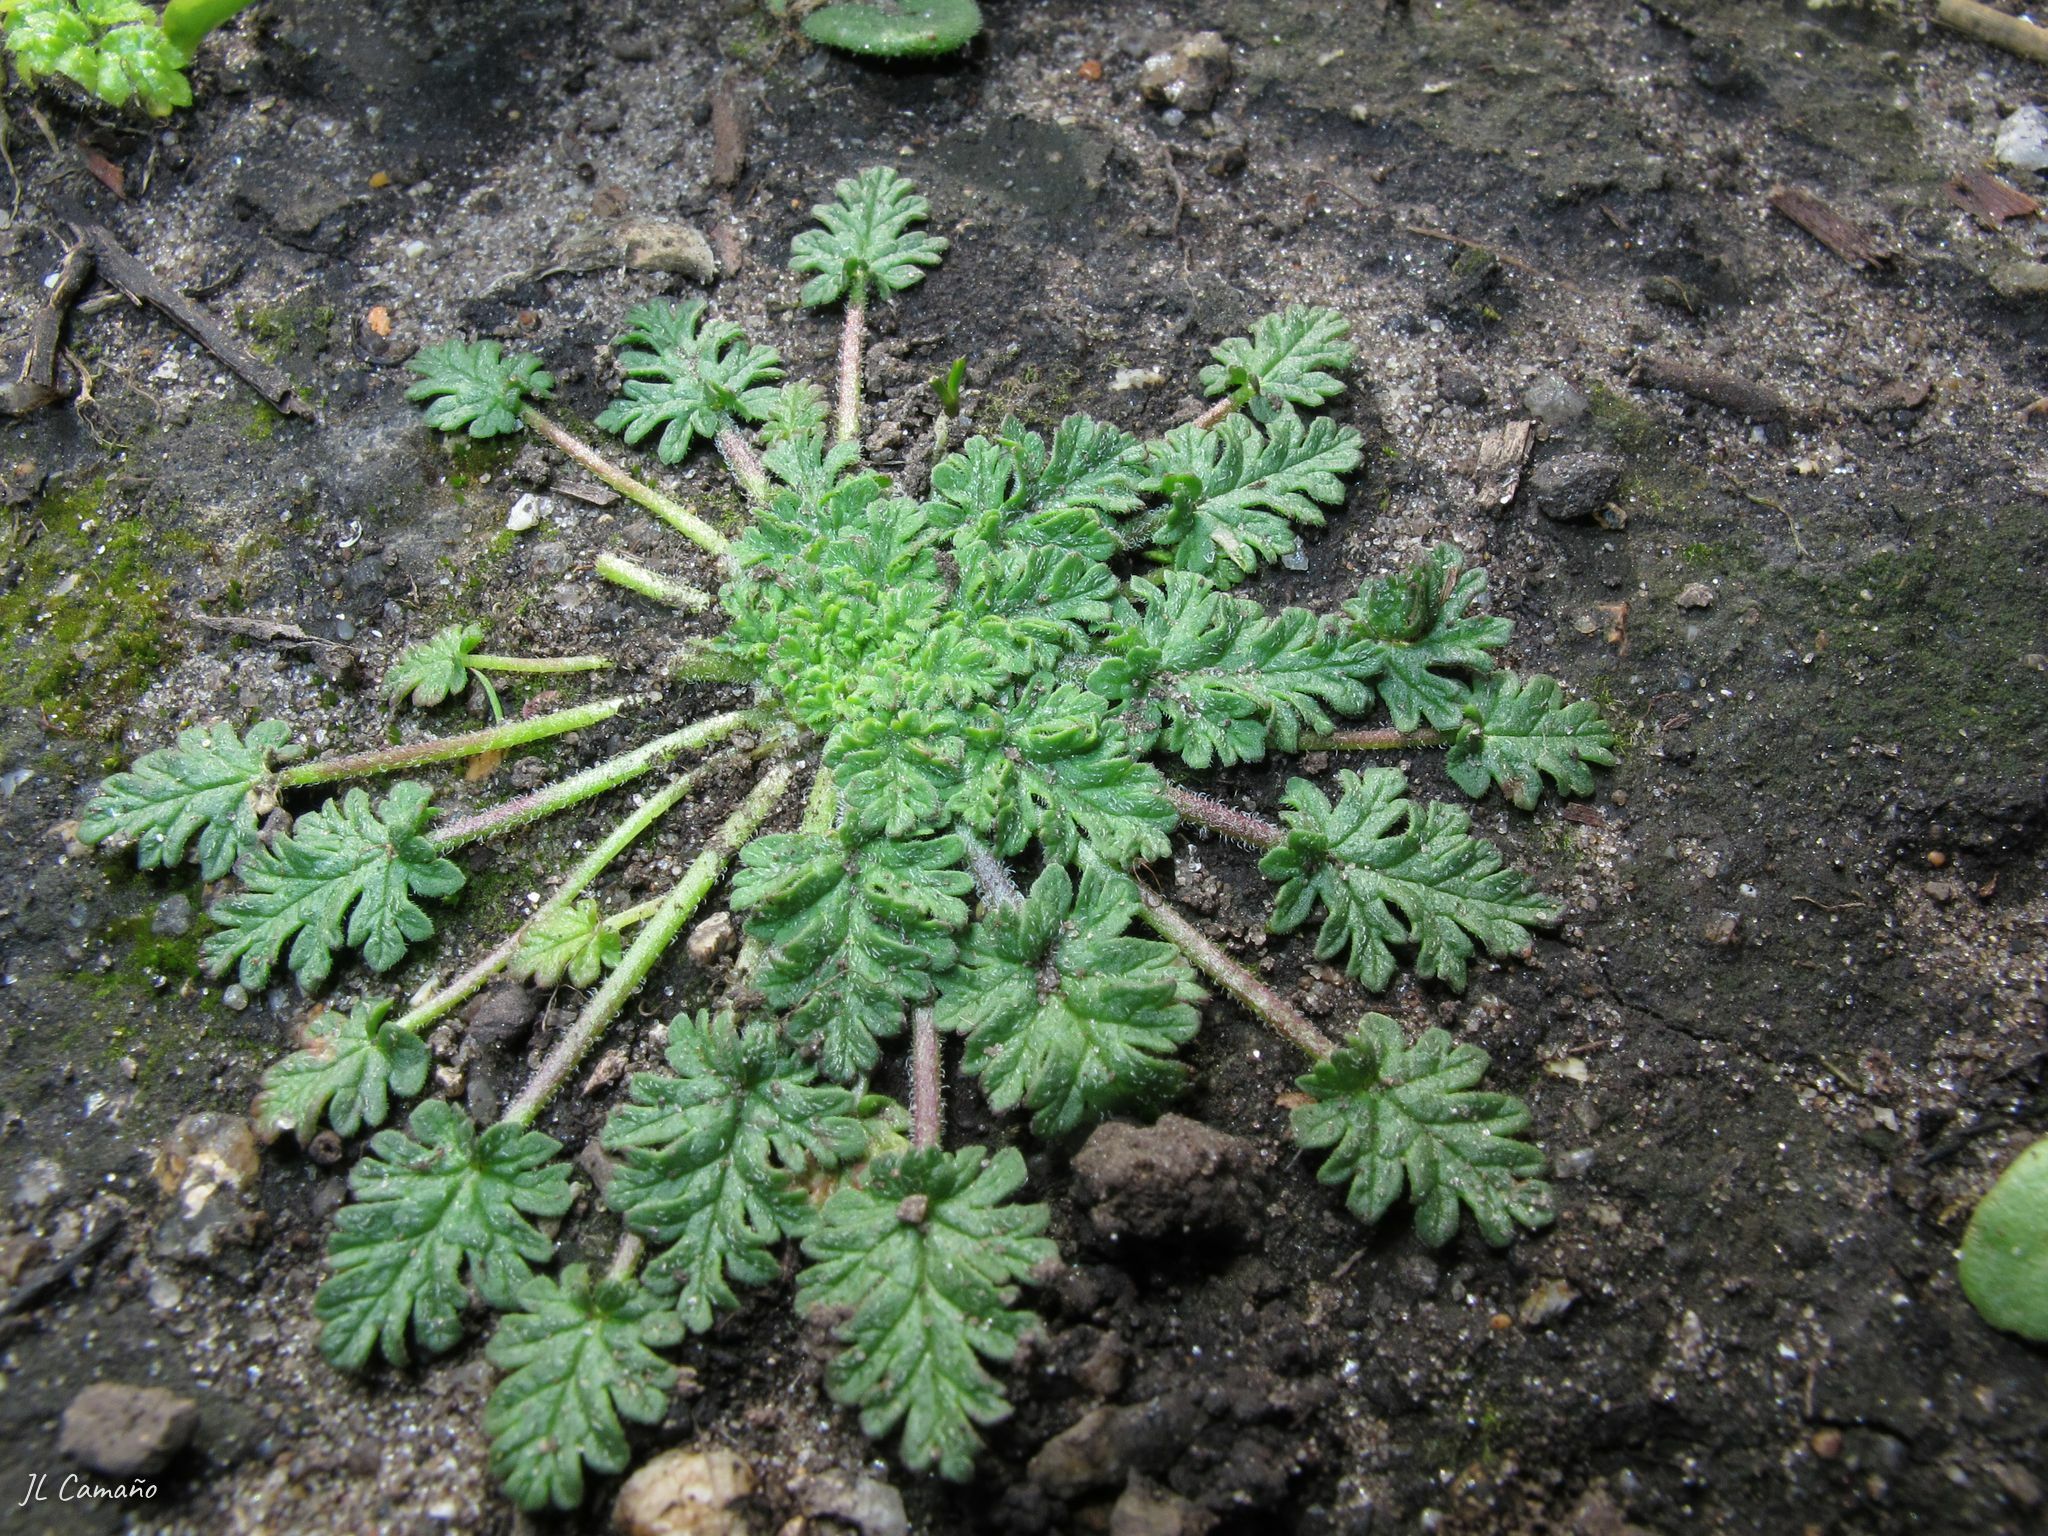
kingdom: Plantae
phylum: Tracheophyta
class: Magnoliopsida
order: Geraniales
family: Geraniaceae
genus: Erodium
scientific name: Erodium maritimum
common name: Sea stork's-bill
